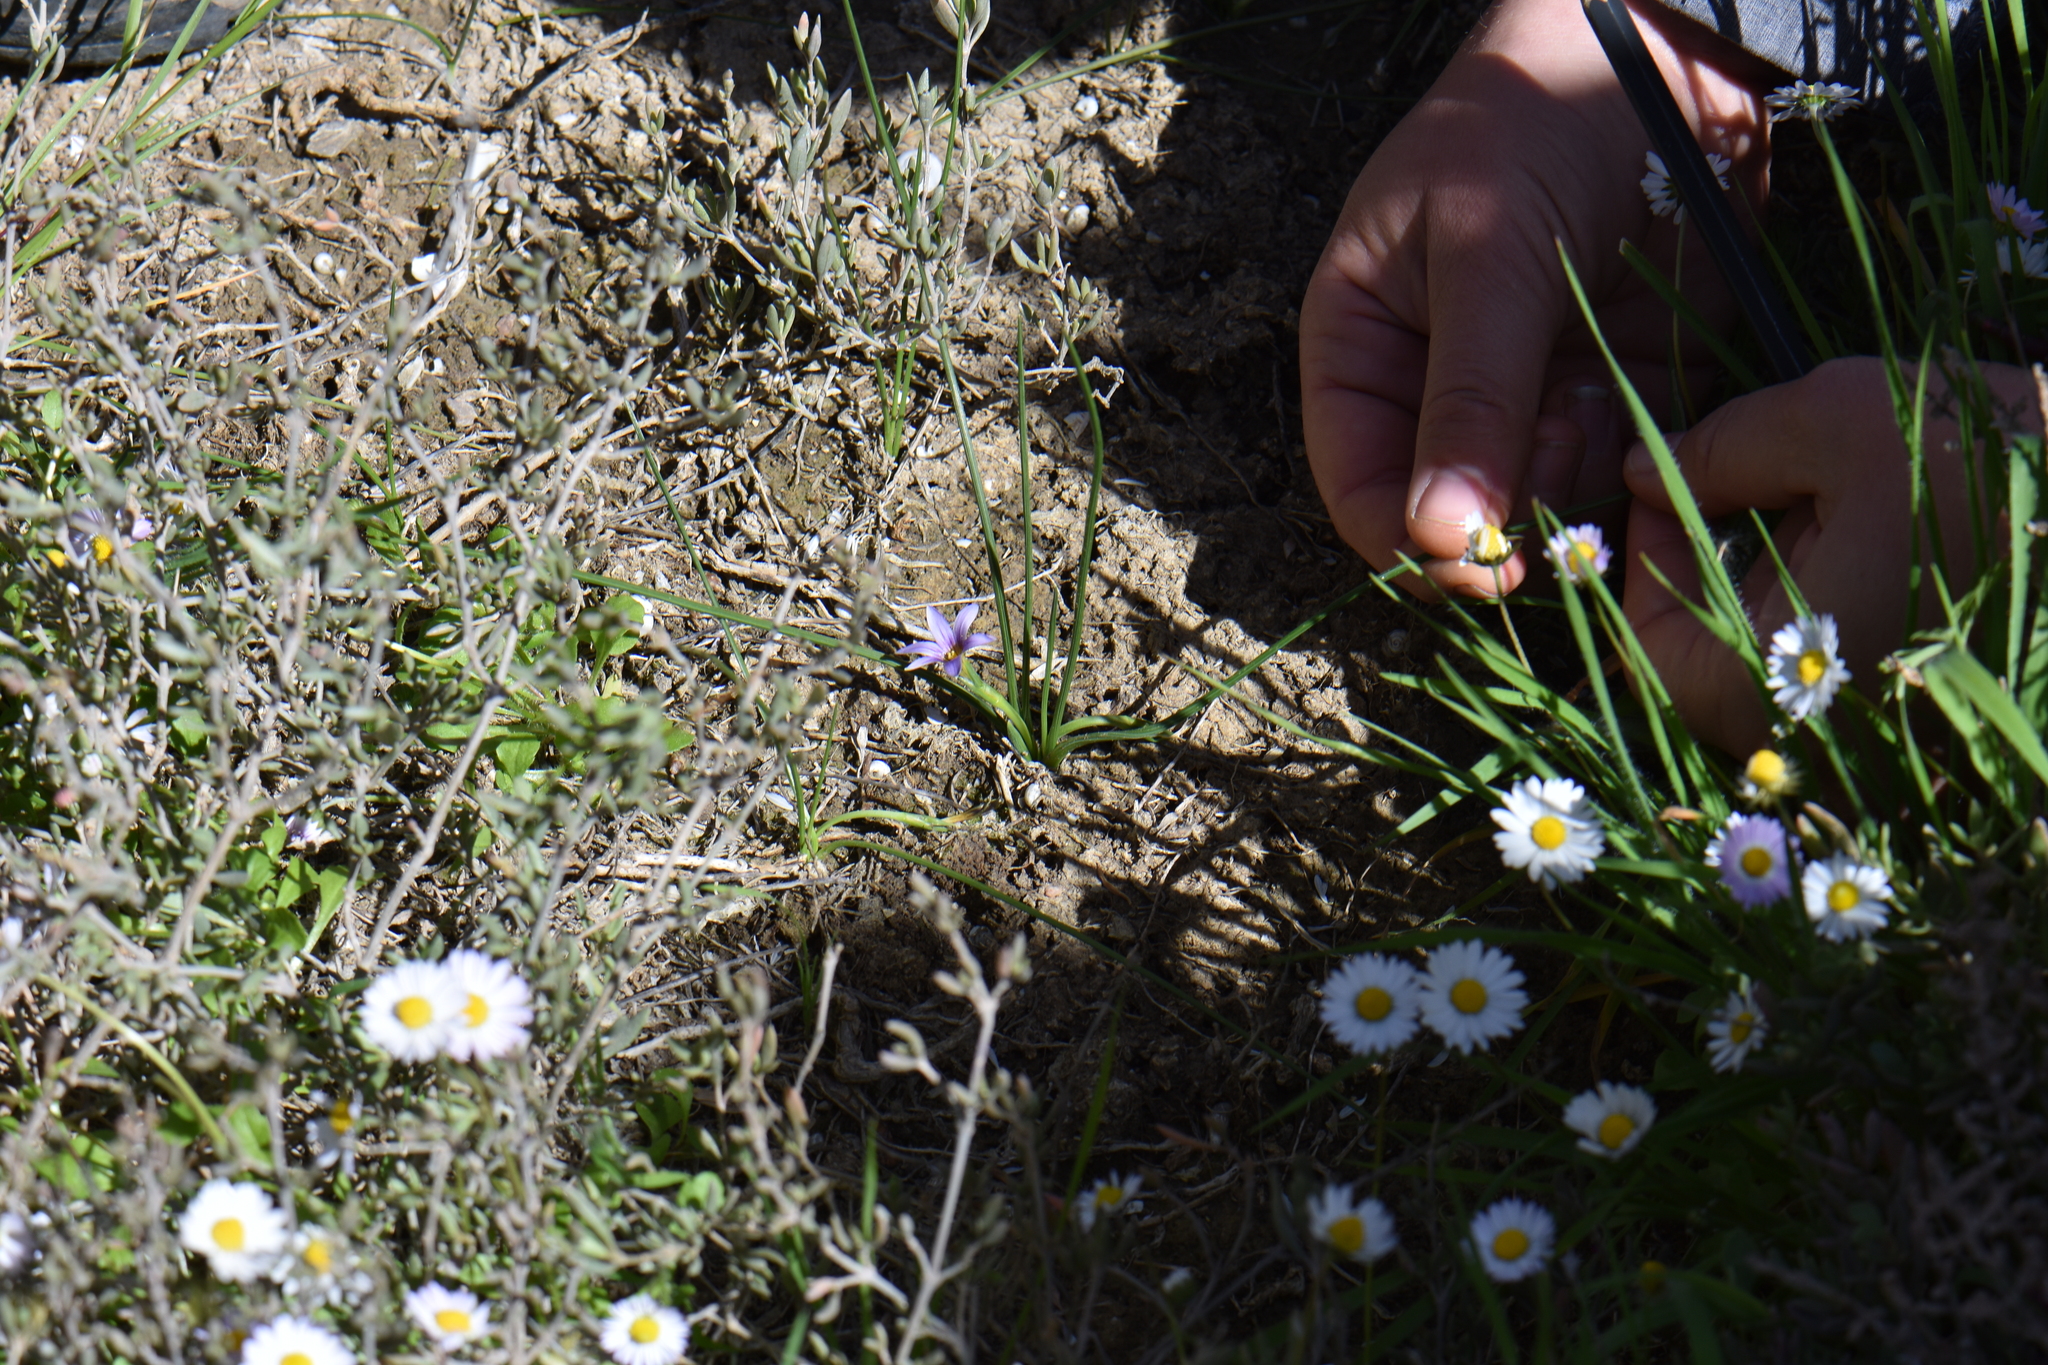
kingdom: Plantae
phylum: Tracheophyta
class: Liliopsida
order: Asparagales
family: Iridaceae
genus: Romulea
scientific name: Romulea ramiflora
